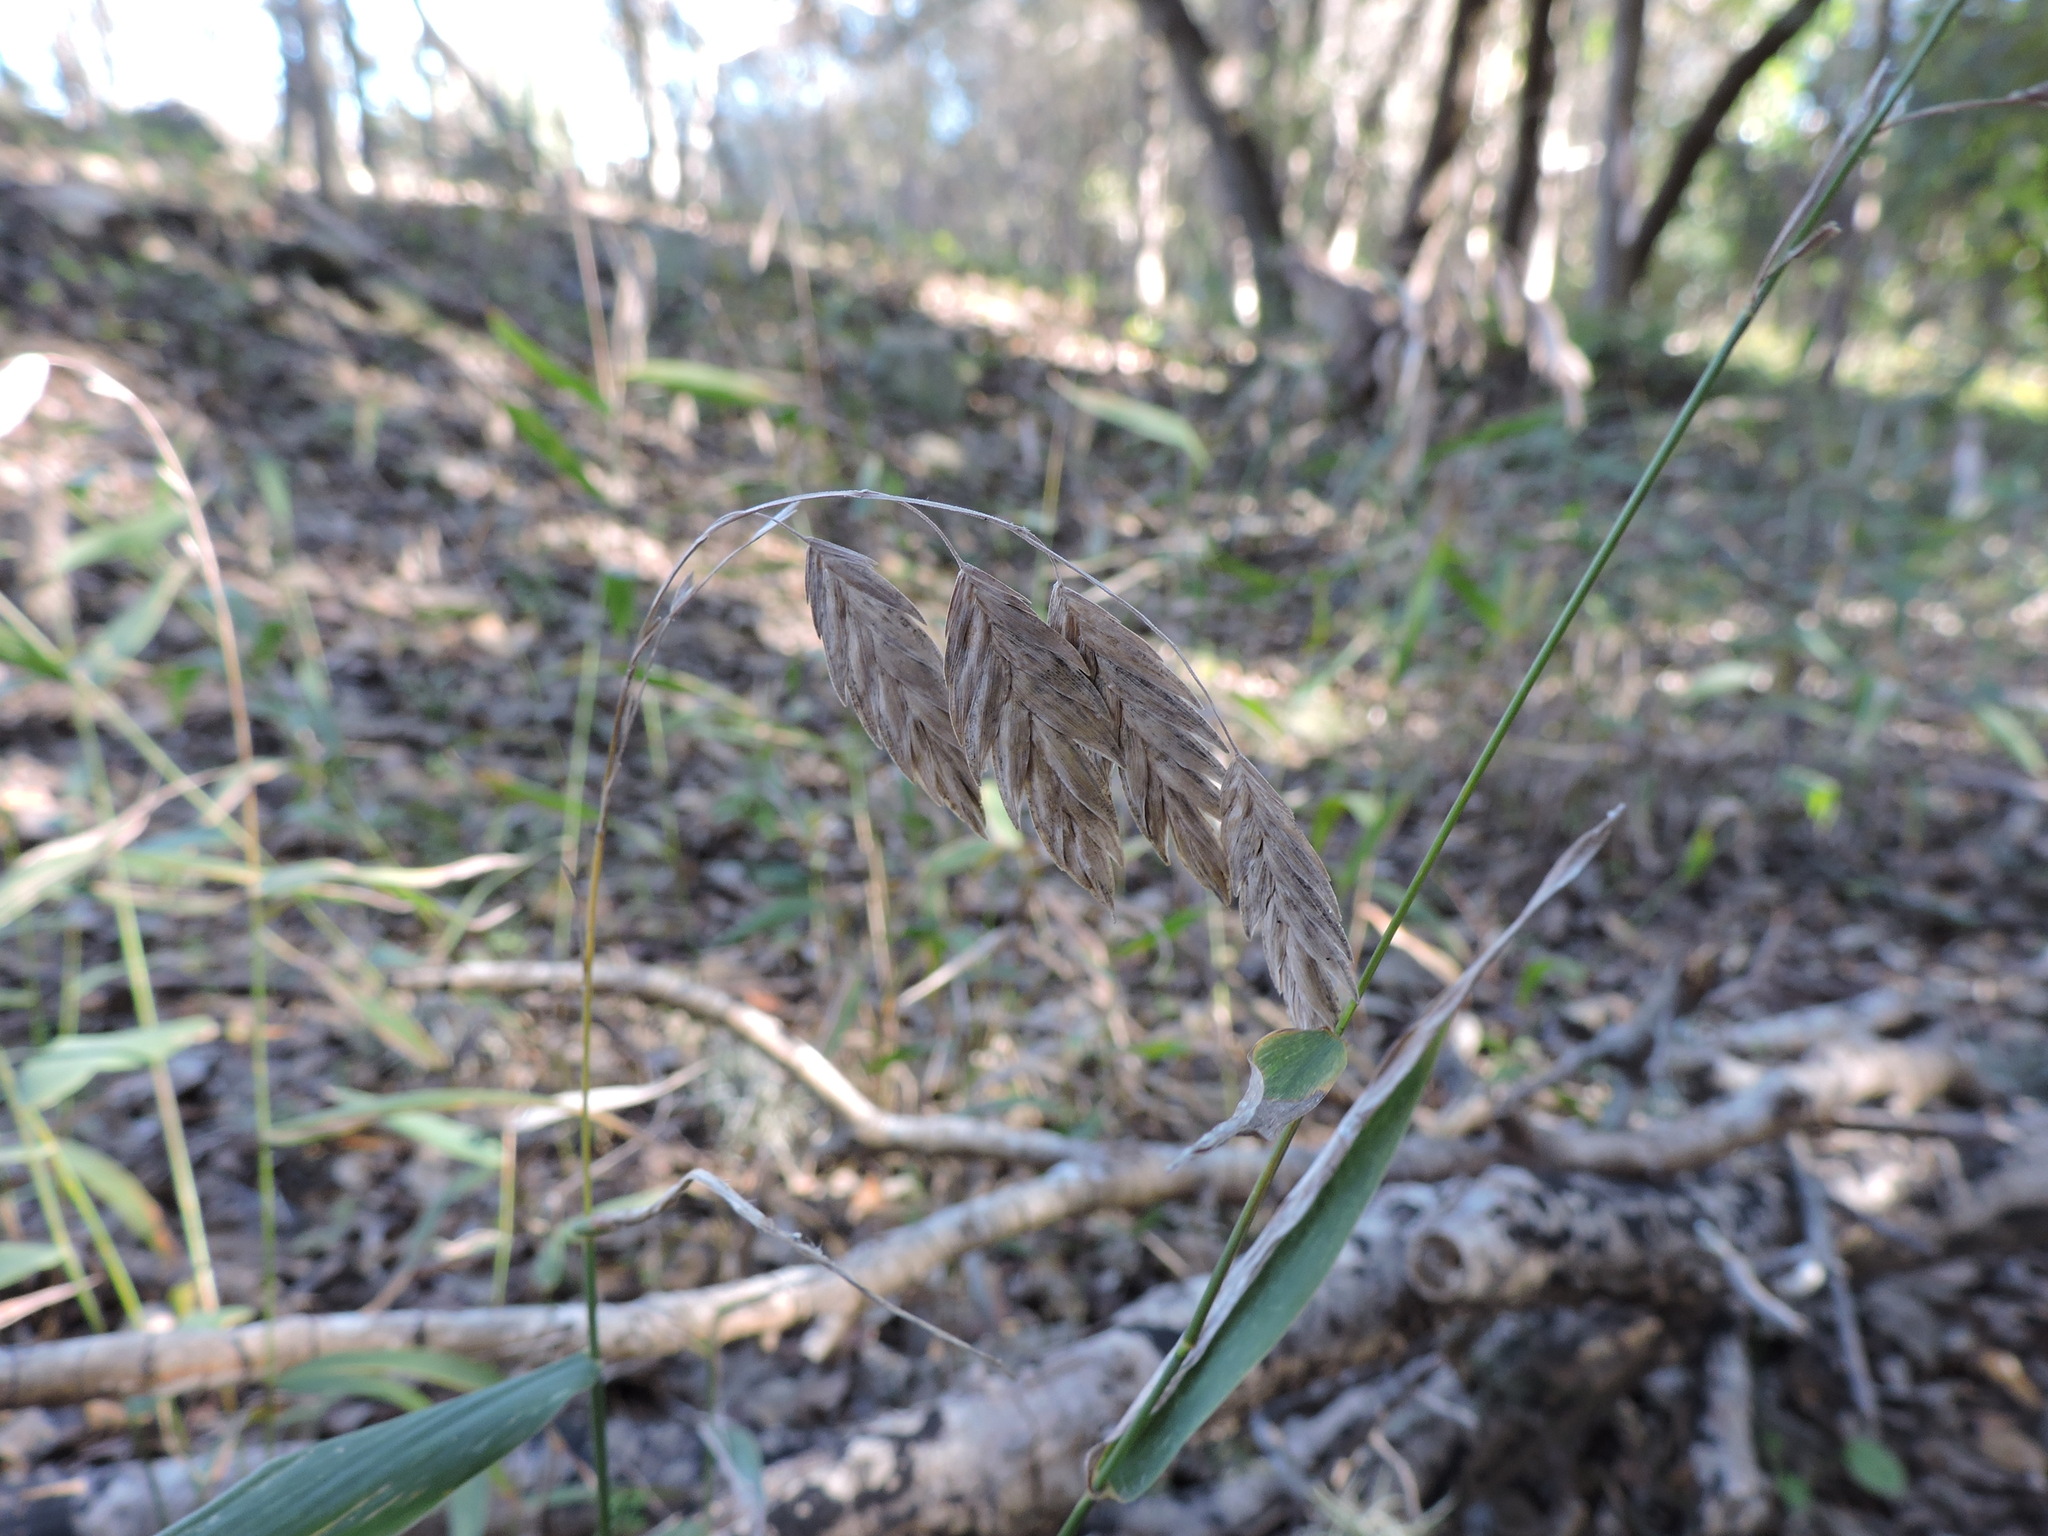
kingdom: Plantae
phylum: Tracheophyta
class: Liliopsida
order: Poales
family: Poaceae
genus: Chasmanthium
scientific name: Chasmanthium latifolium
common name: Broad-leaved chasmanthium
